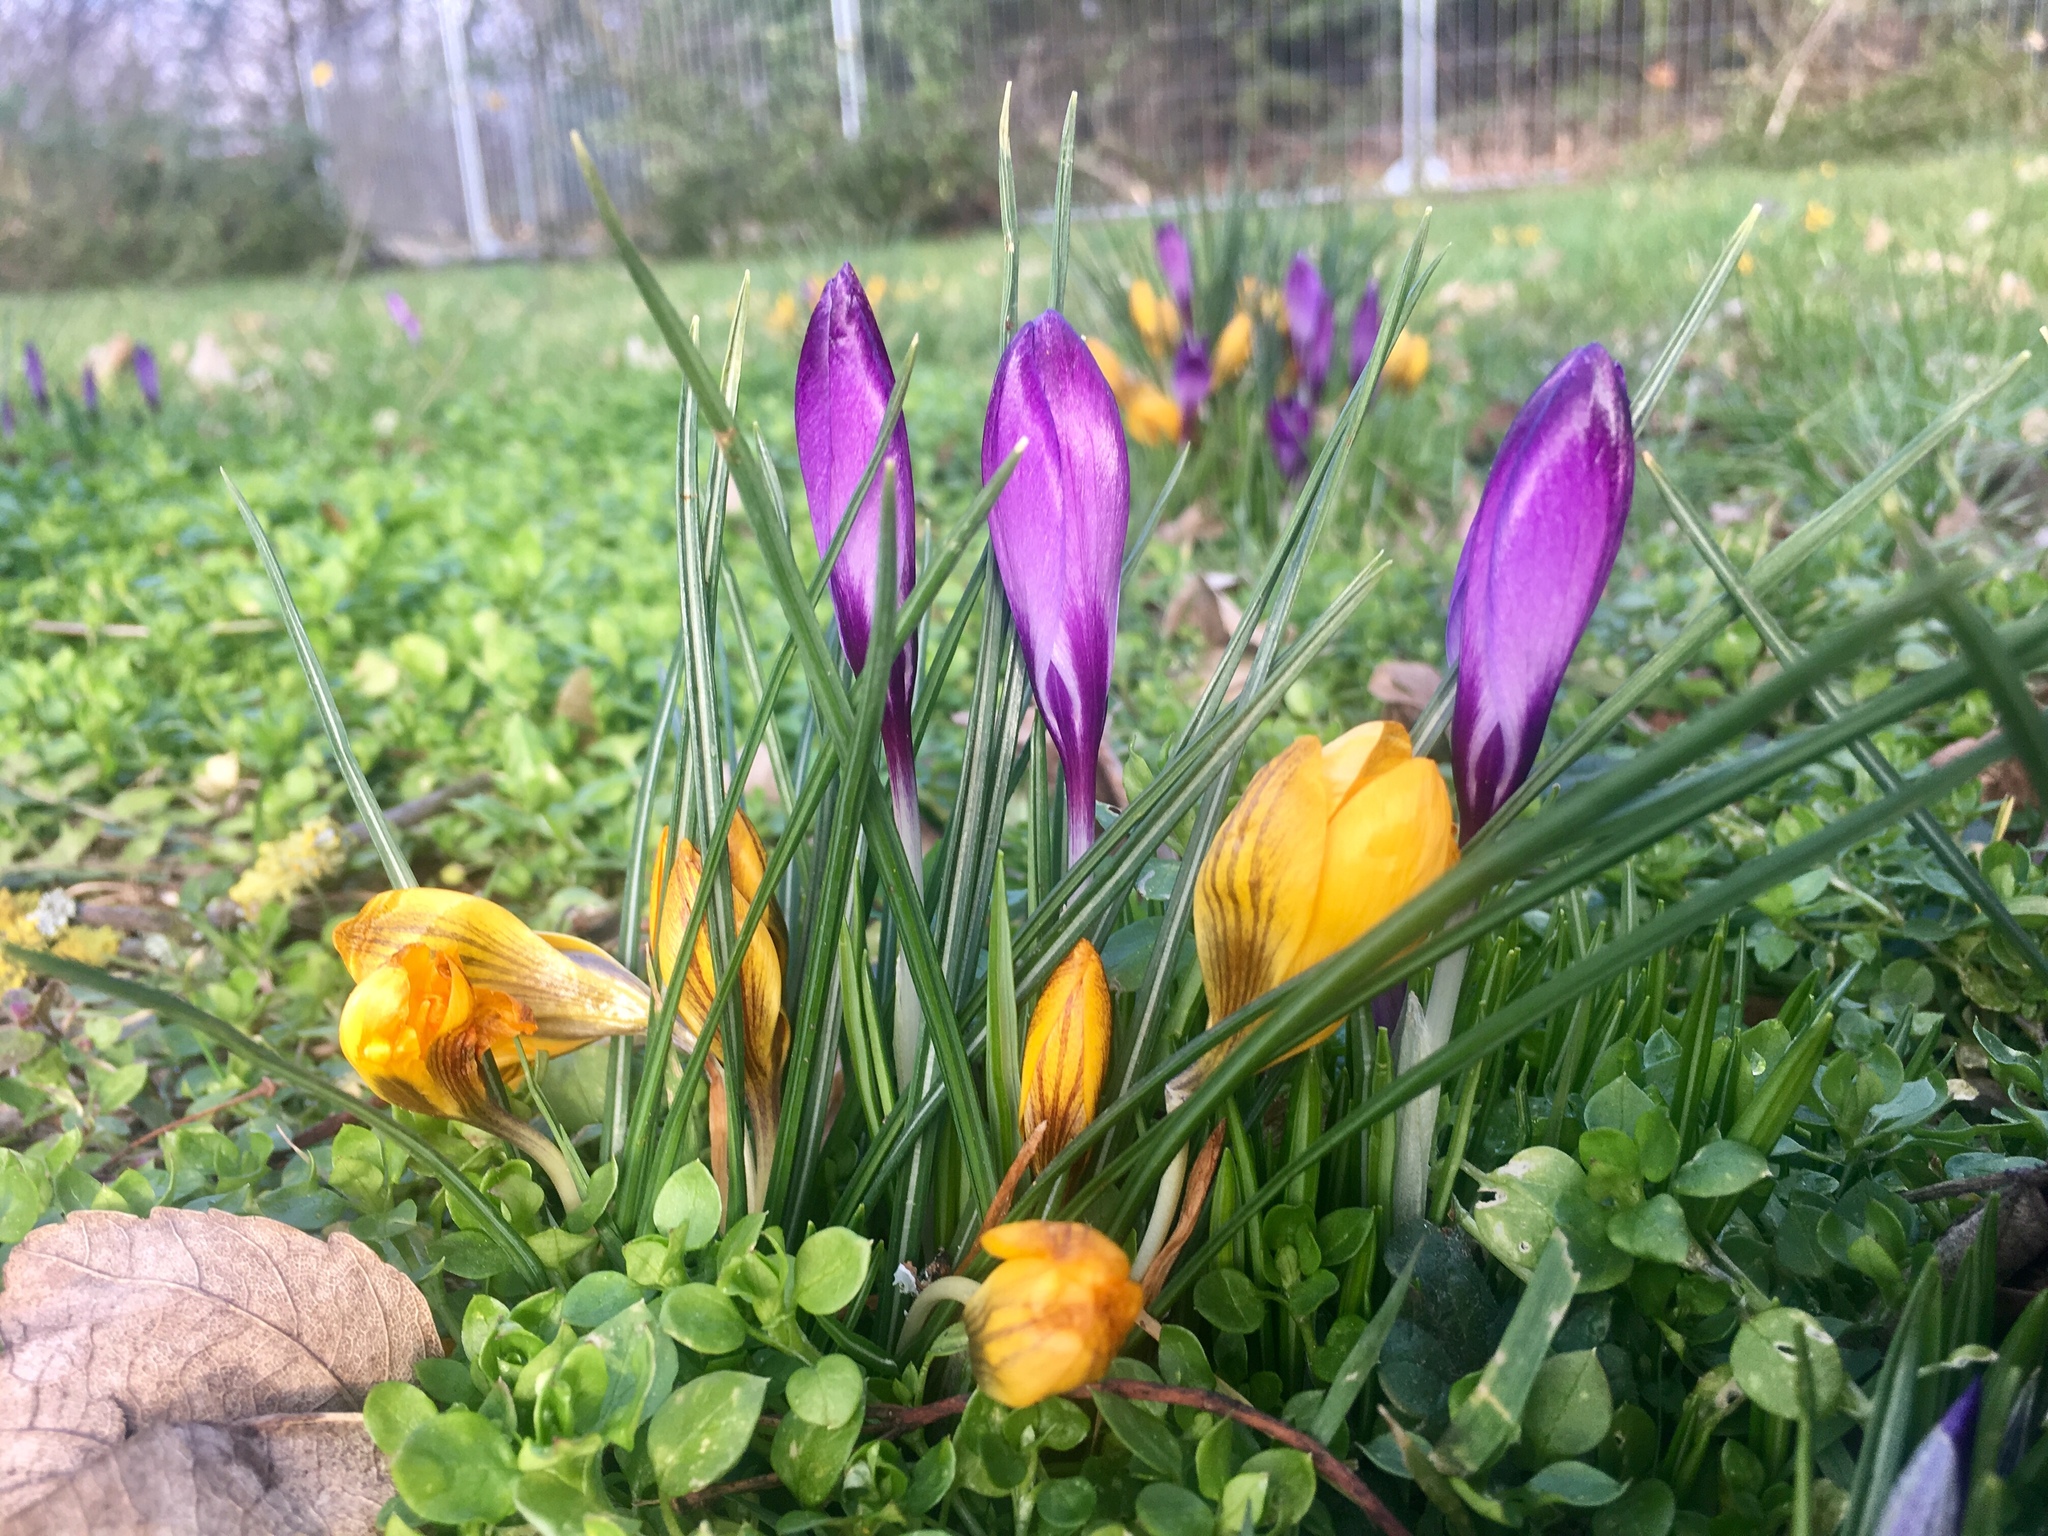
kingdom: Plantae
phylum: Tracheophyta
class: Liliopsida
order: Asparagales
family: Iridaceae
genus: Crocus
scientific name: Crocus chrysanthus
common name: Golden crocus
